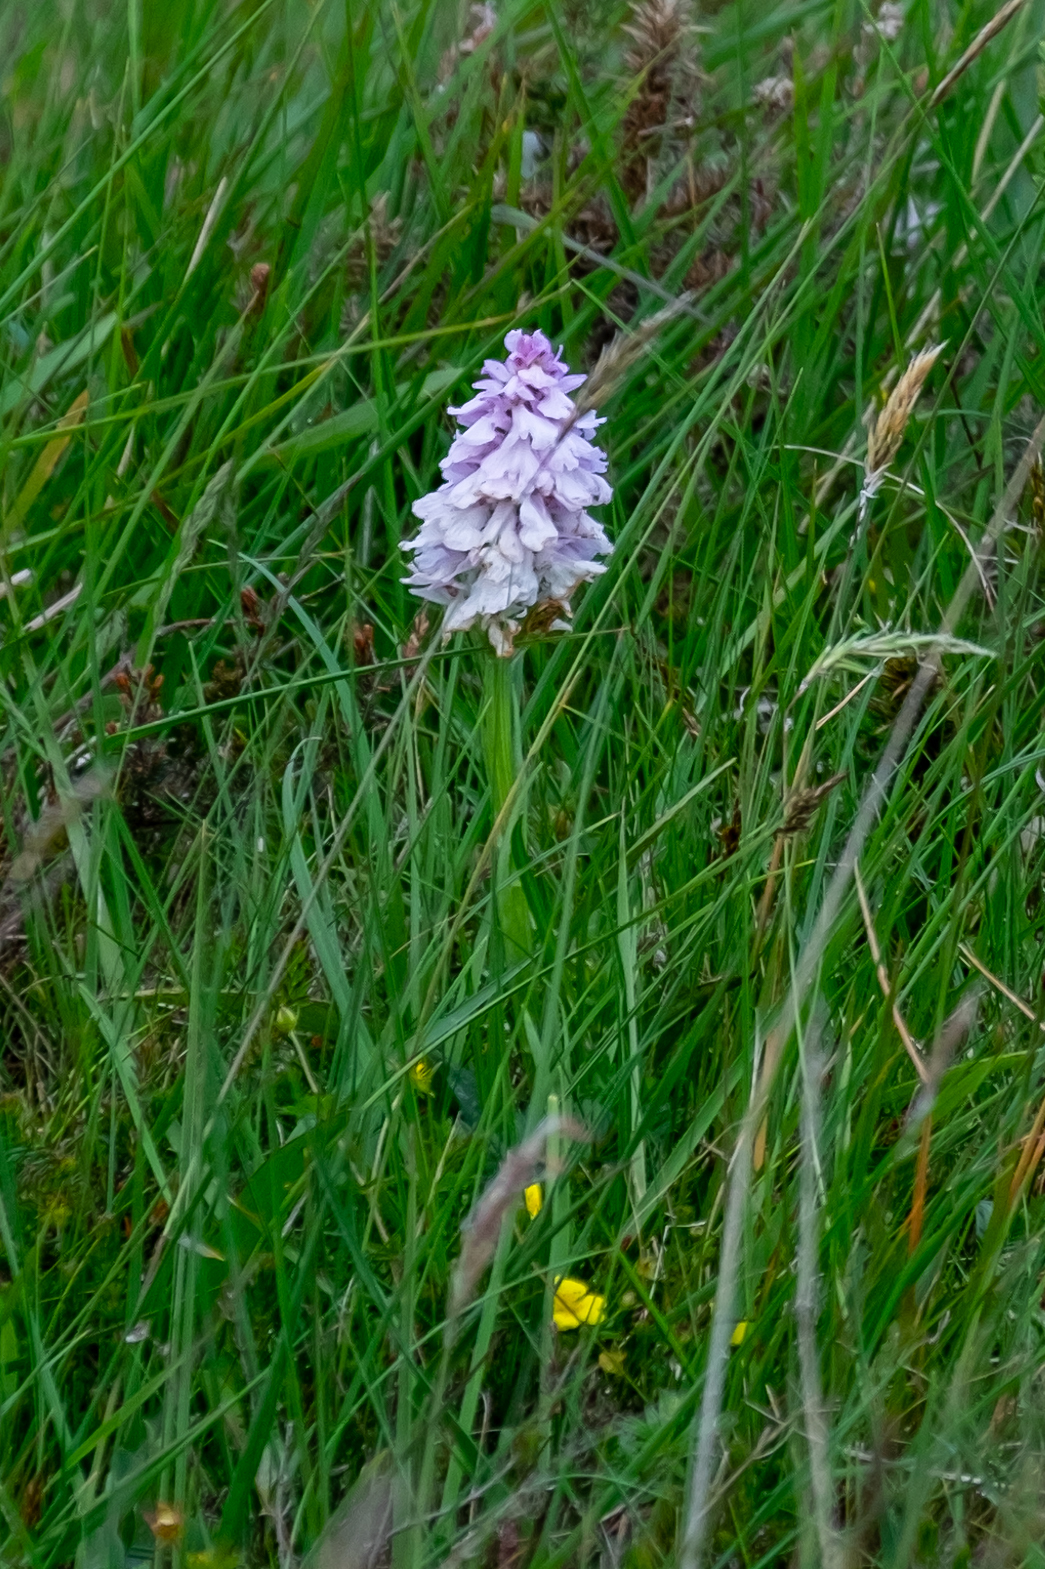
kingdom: Plantae
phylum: Tracheophyta
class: Liliopsida
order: Asparagales
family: Orchidaceae
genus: Dactylorhiza
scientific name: Dactylorhiza maculata
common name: Heath spotted-orchid
